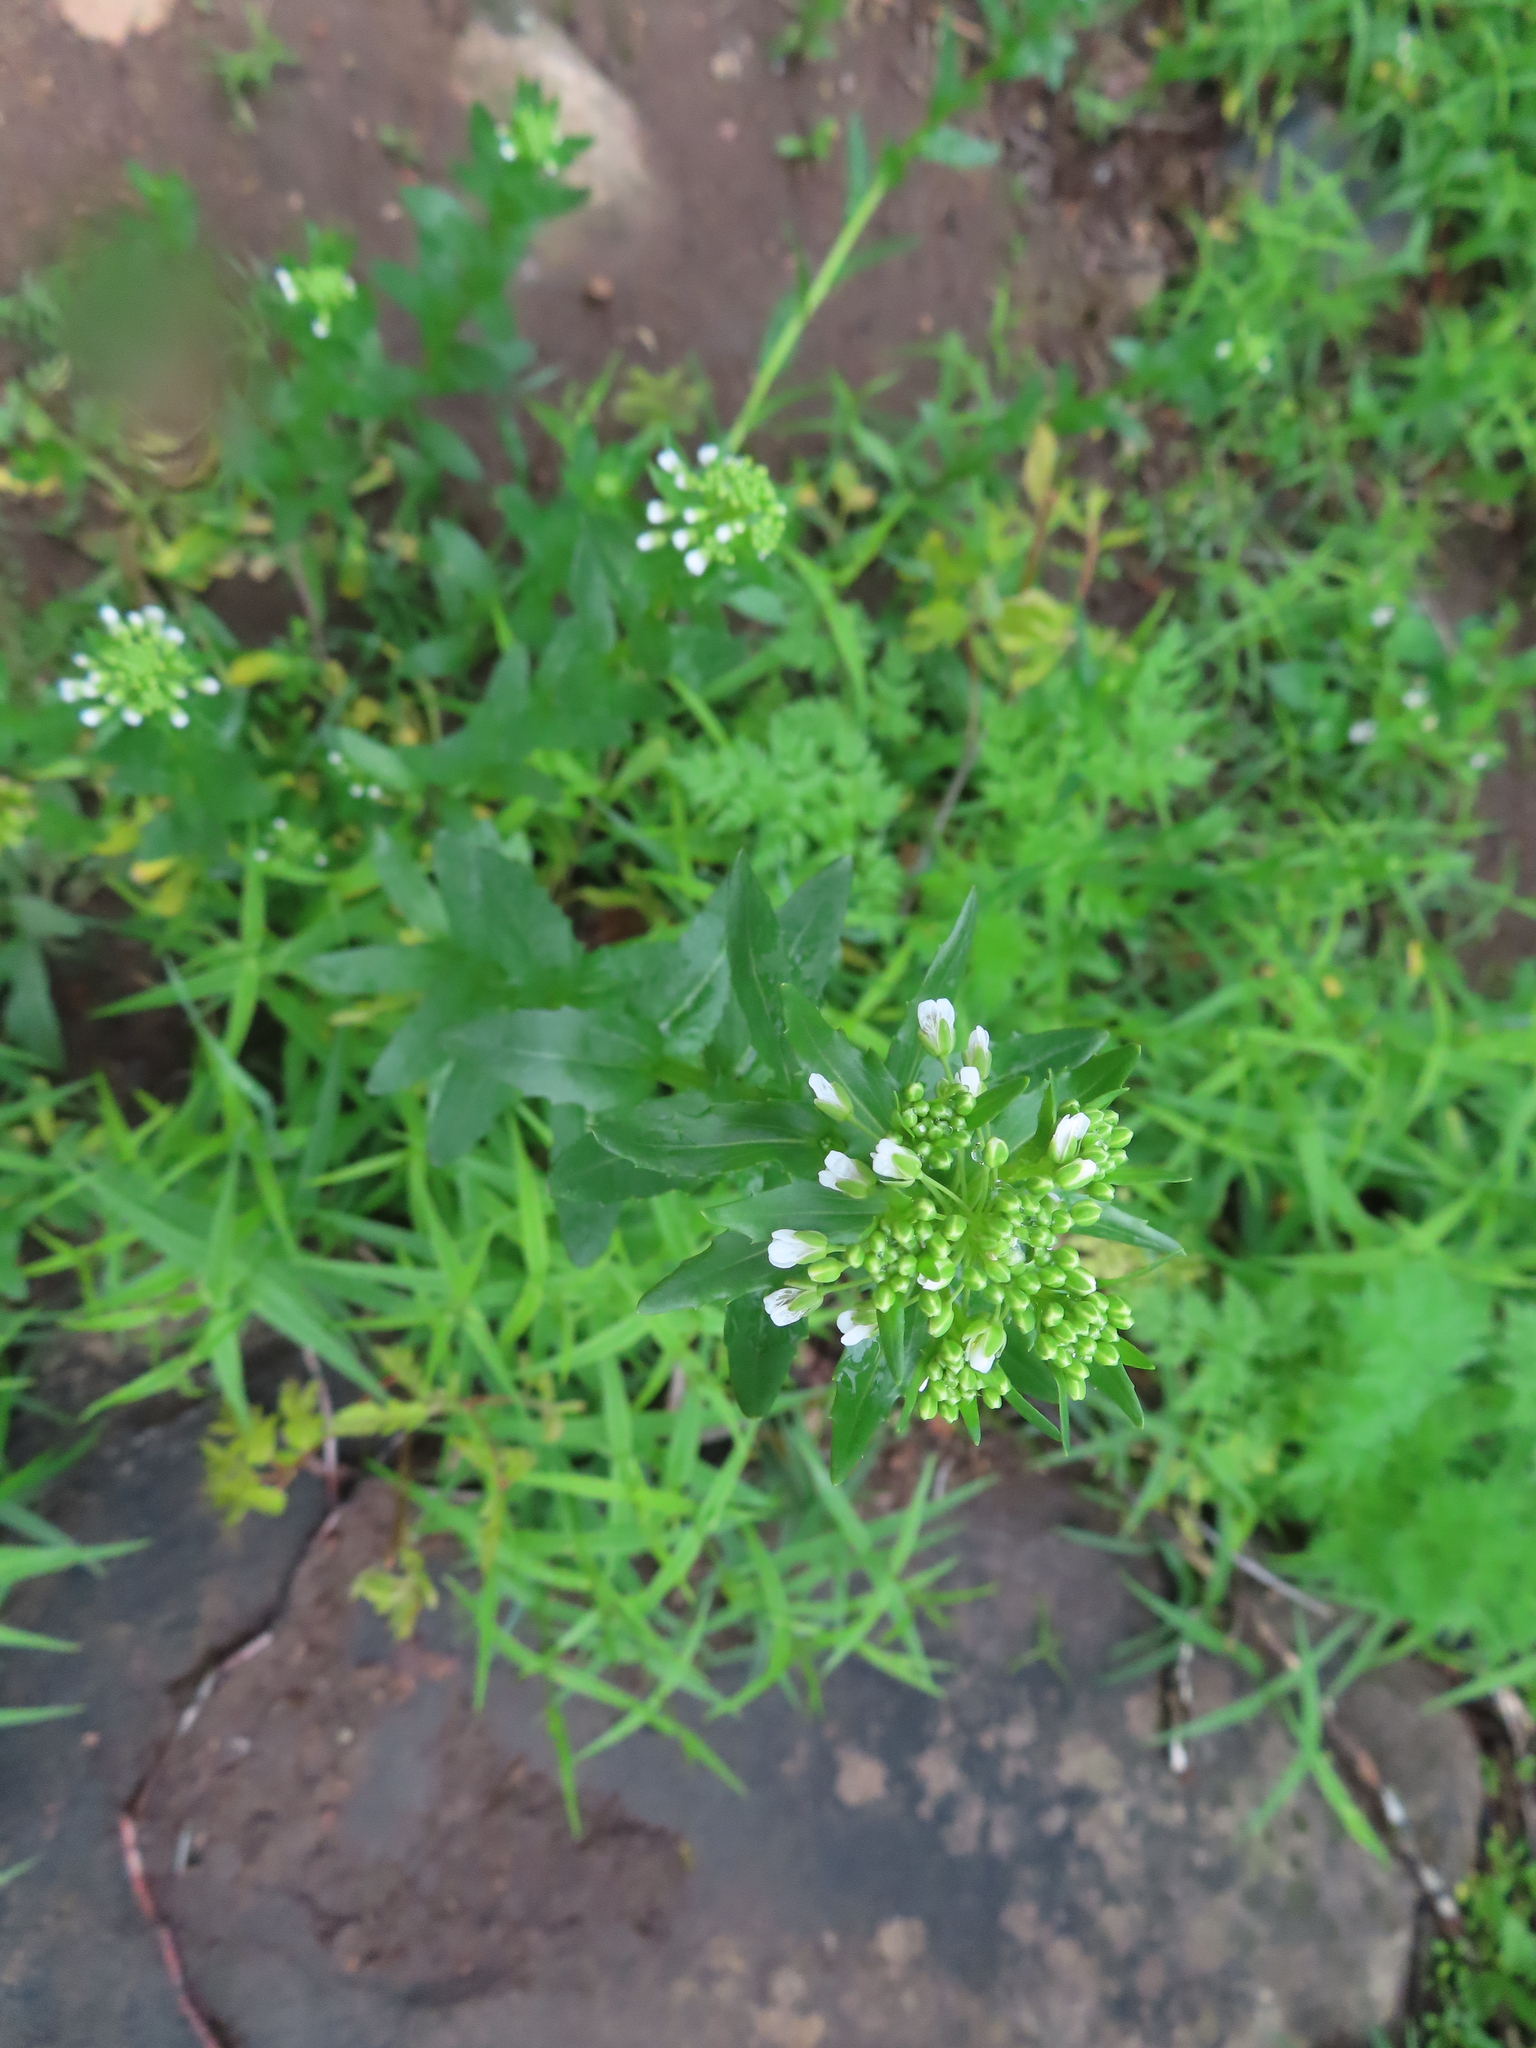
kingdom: Plantae
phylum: Tracheophyta
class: Magnoliopsida
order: Brassicales
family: Brassicaceae
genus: Thlaspi
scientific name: Thlaspi arvense
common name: Field pennycress
